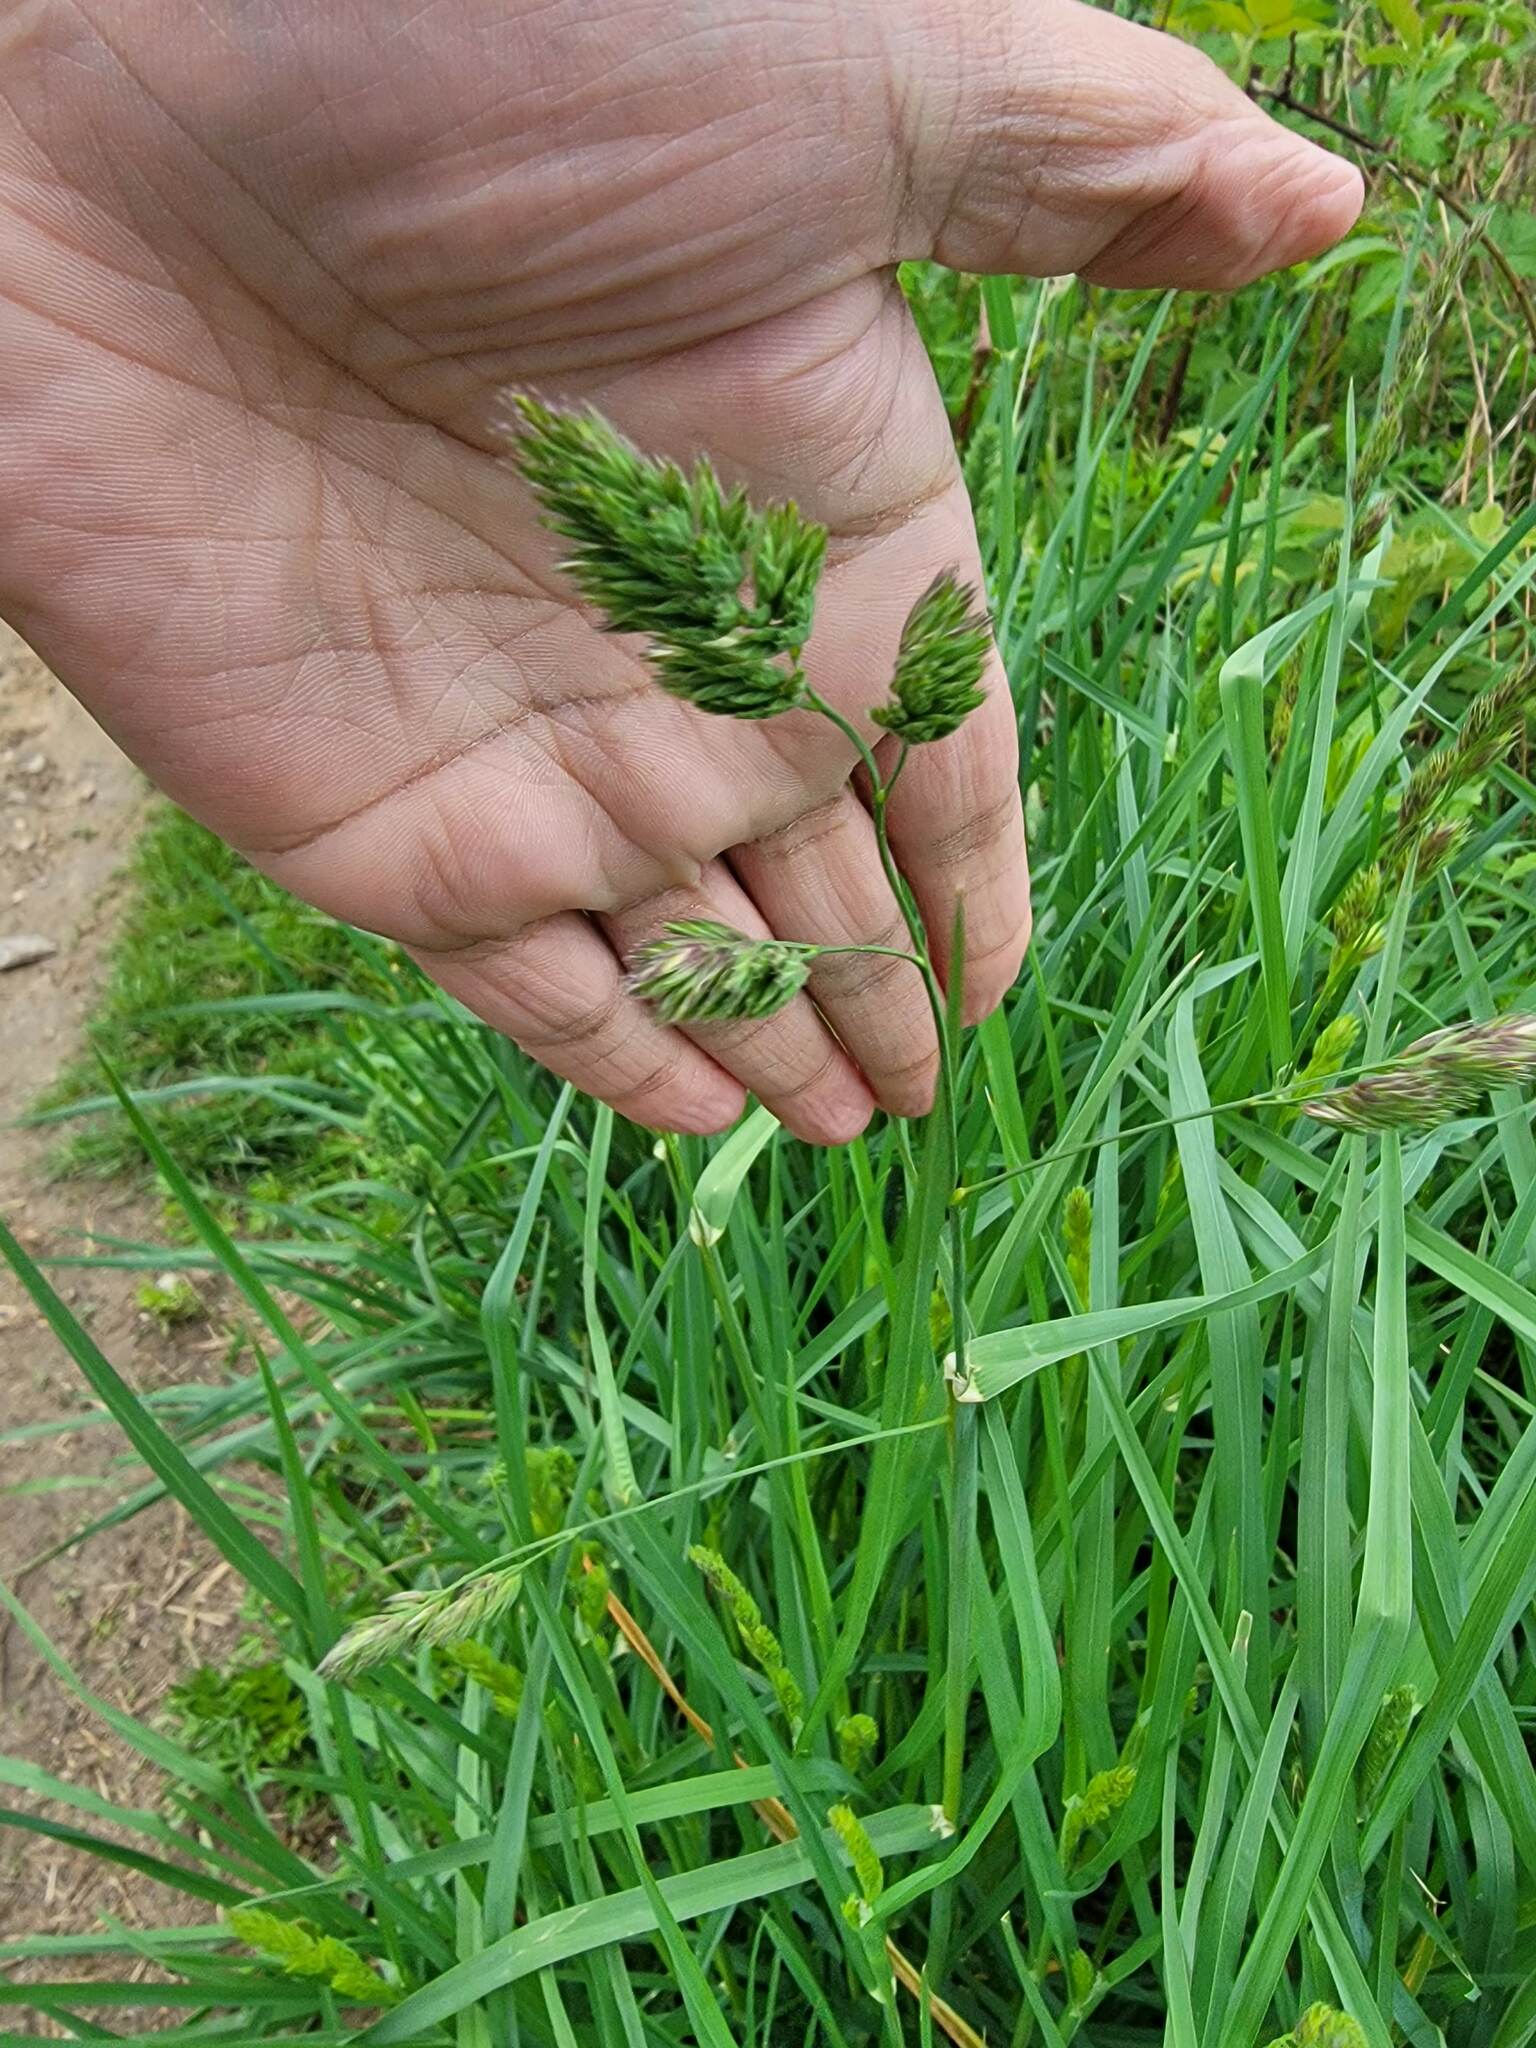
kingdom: Plantae
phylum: Tracheophyta
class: Liliopsida
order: Poales
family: Poaceae
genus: Dactylis
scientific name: Dactylis glomerata
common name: Orchardgrass
